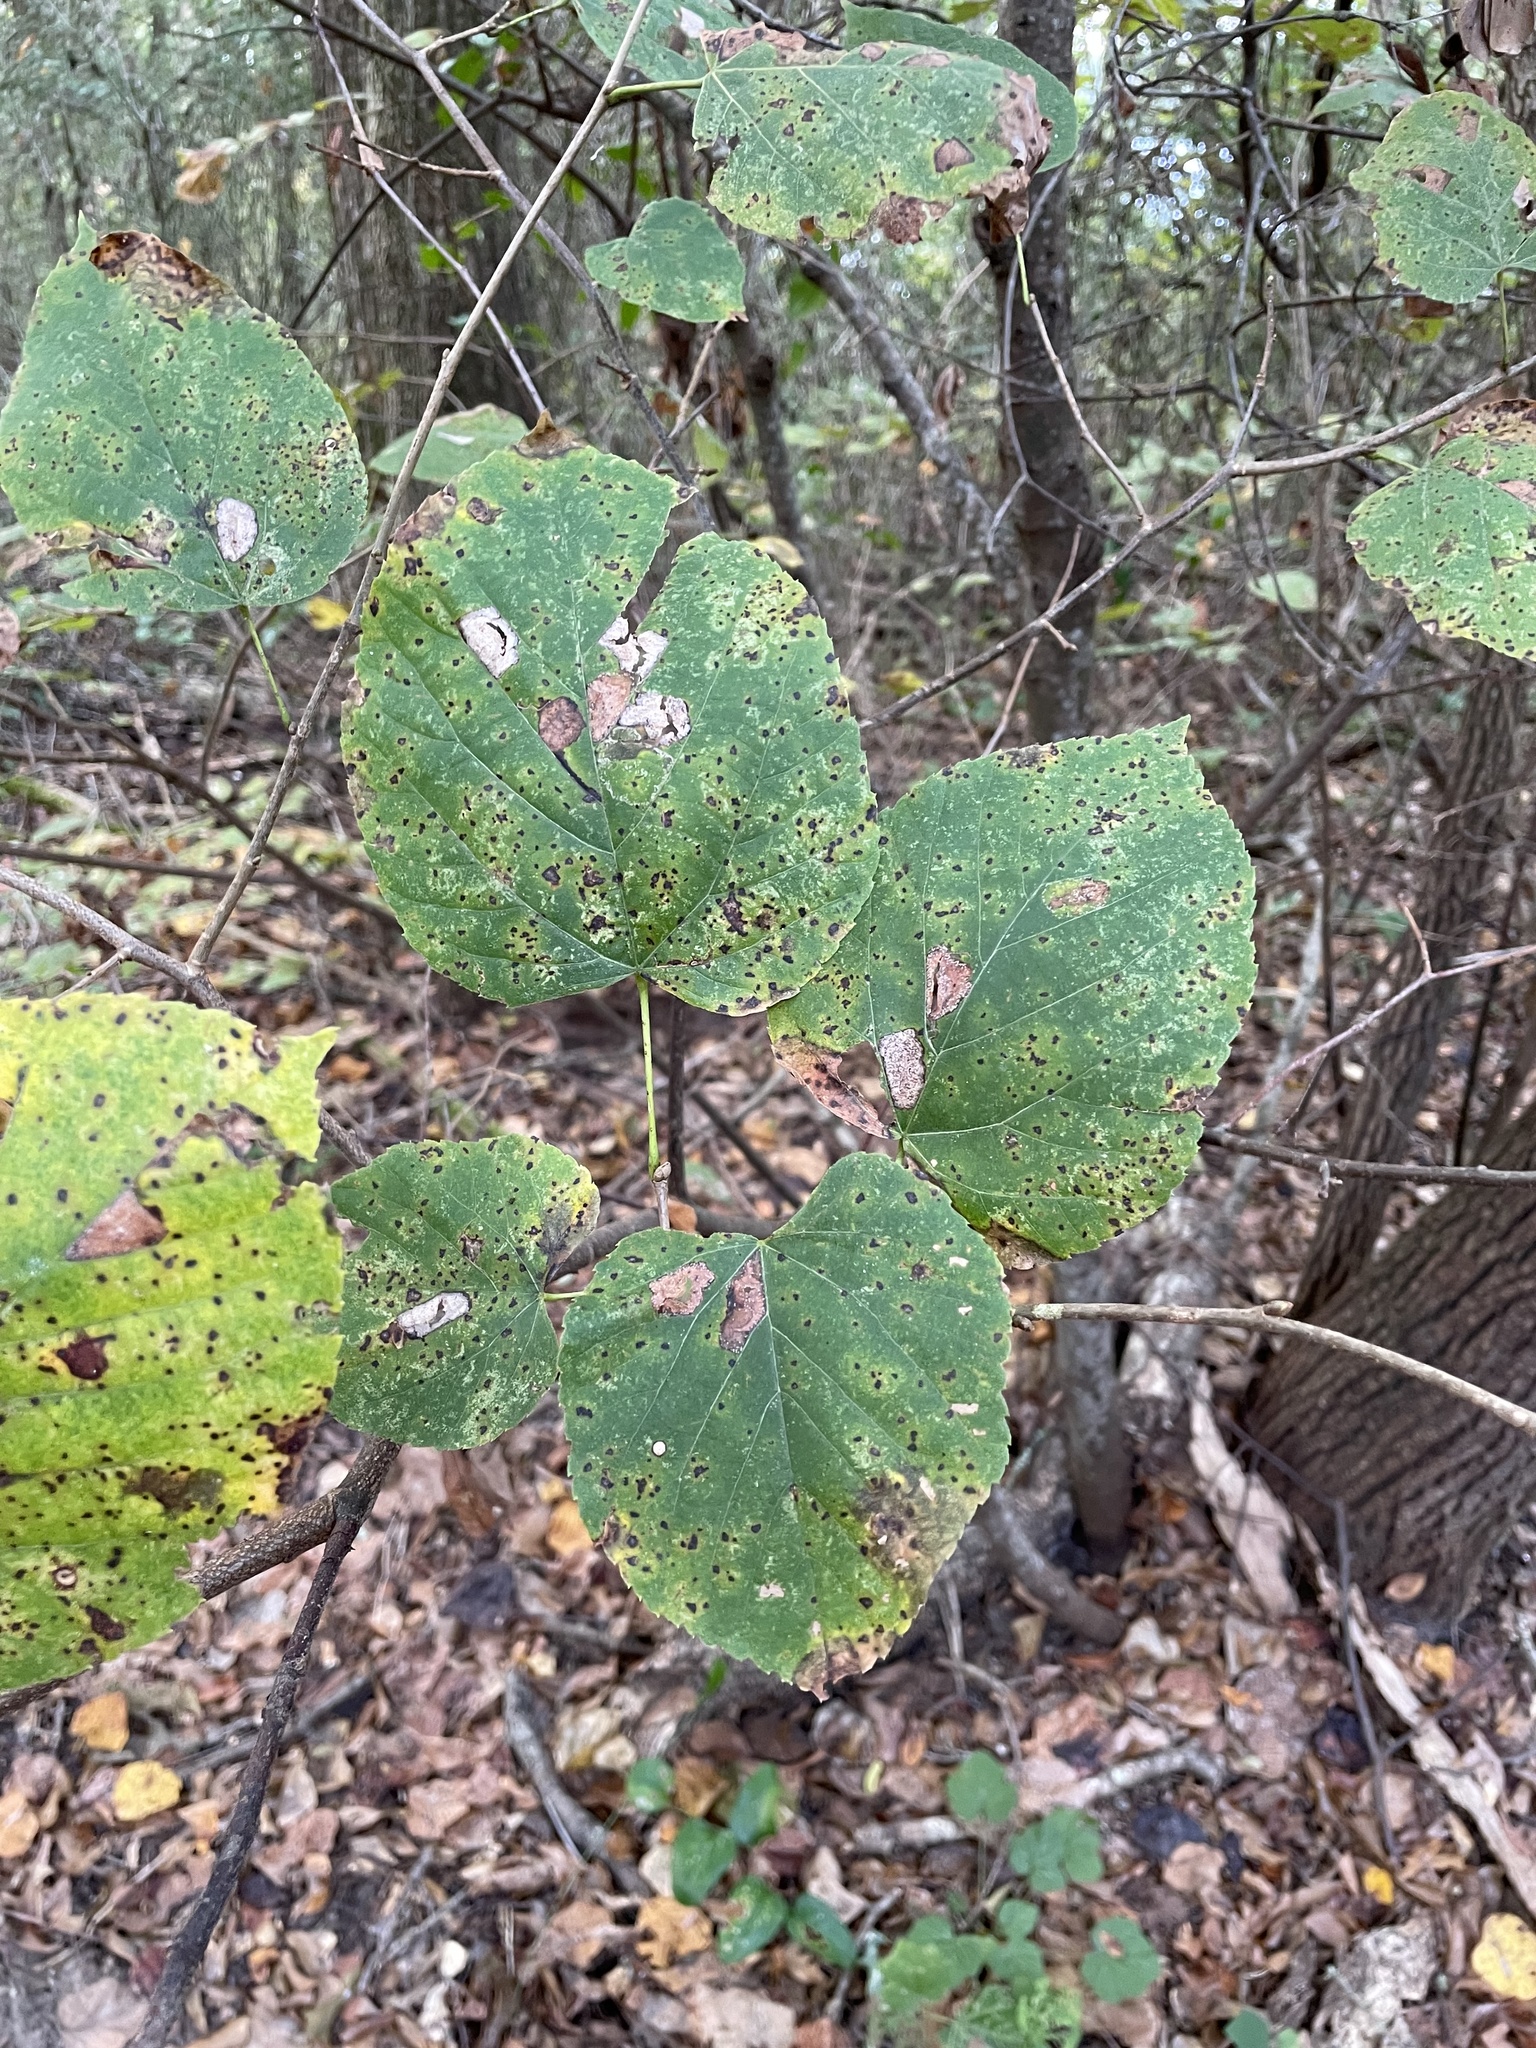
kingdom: Plantae
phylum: Tracheophyta
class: Magnoliopsida
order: Malvales
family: Malvaceae
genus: Tilia
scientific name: Tilia americana
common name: Basswood
